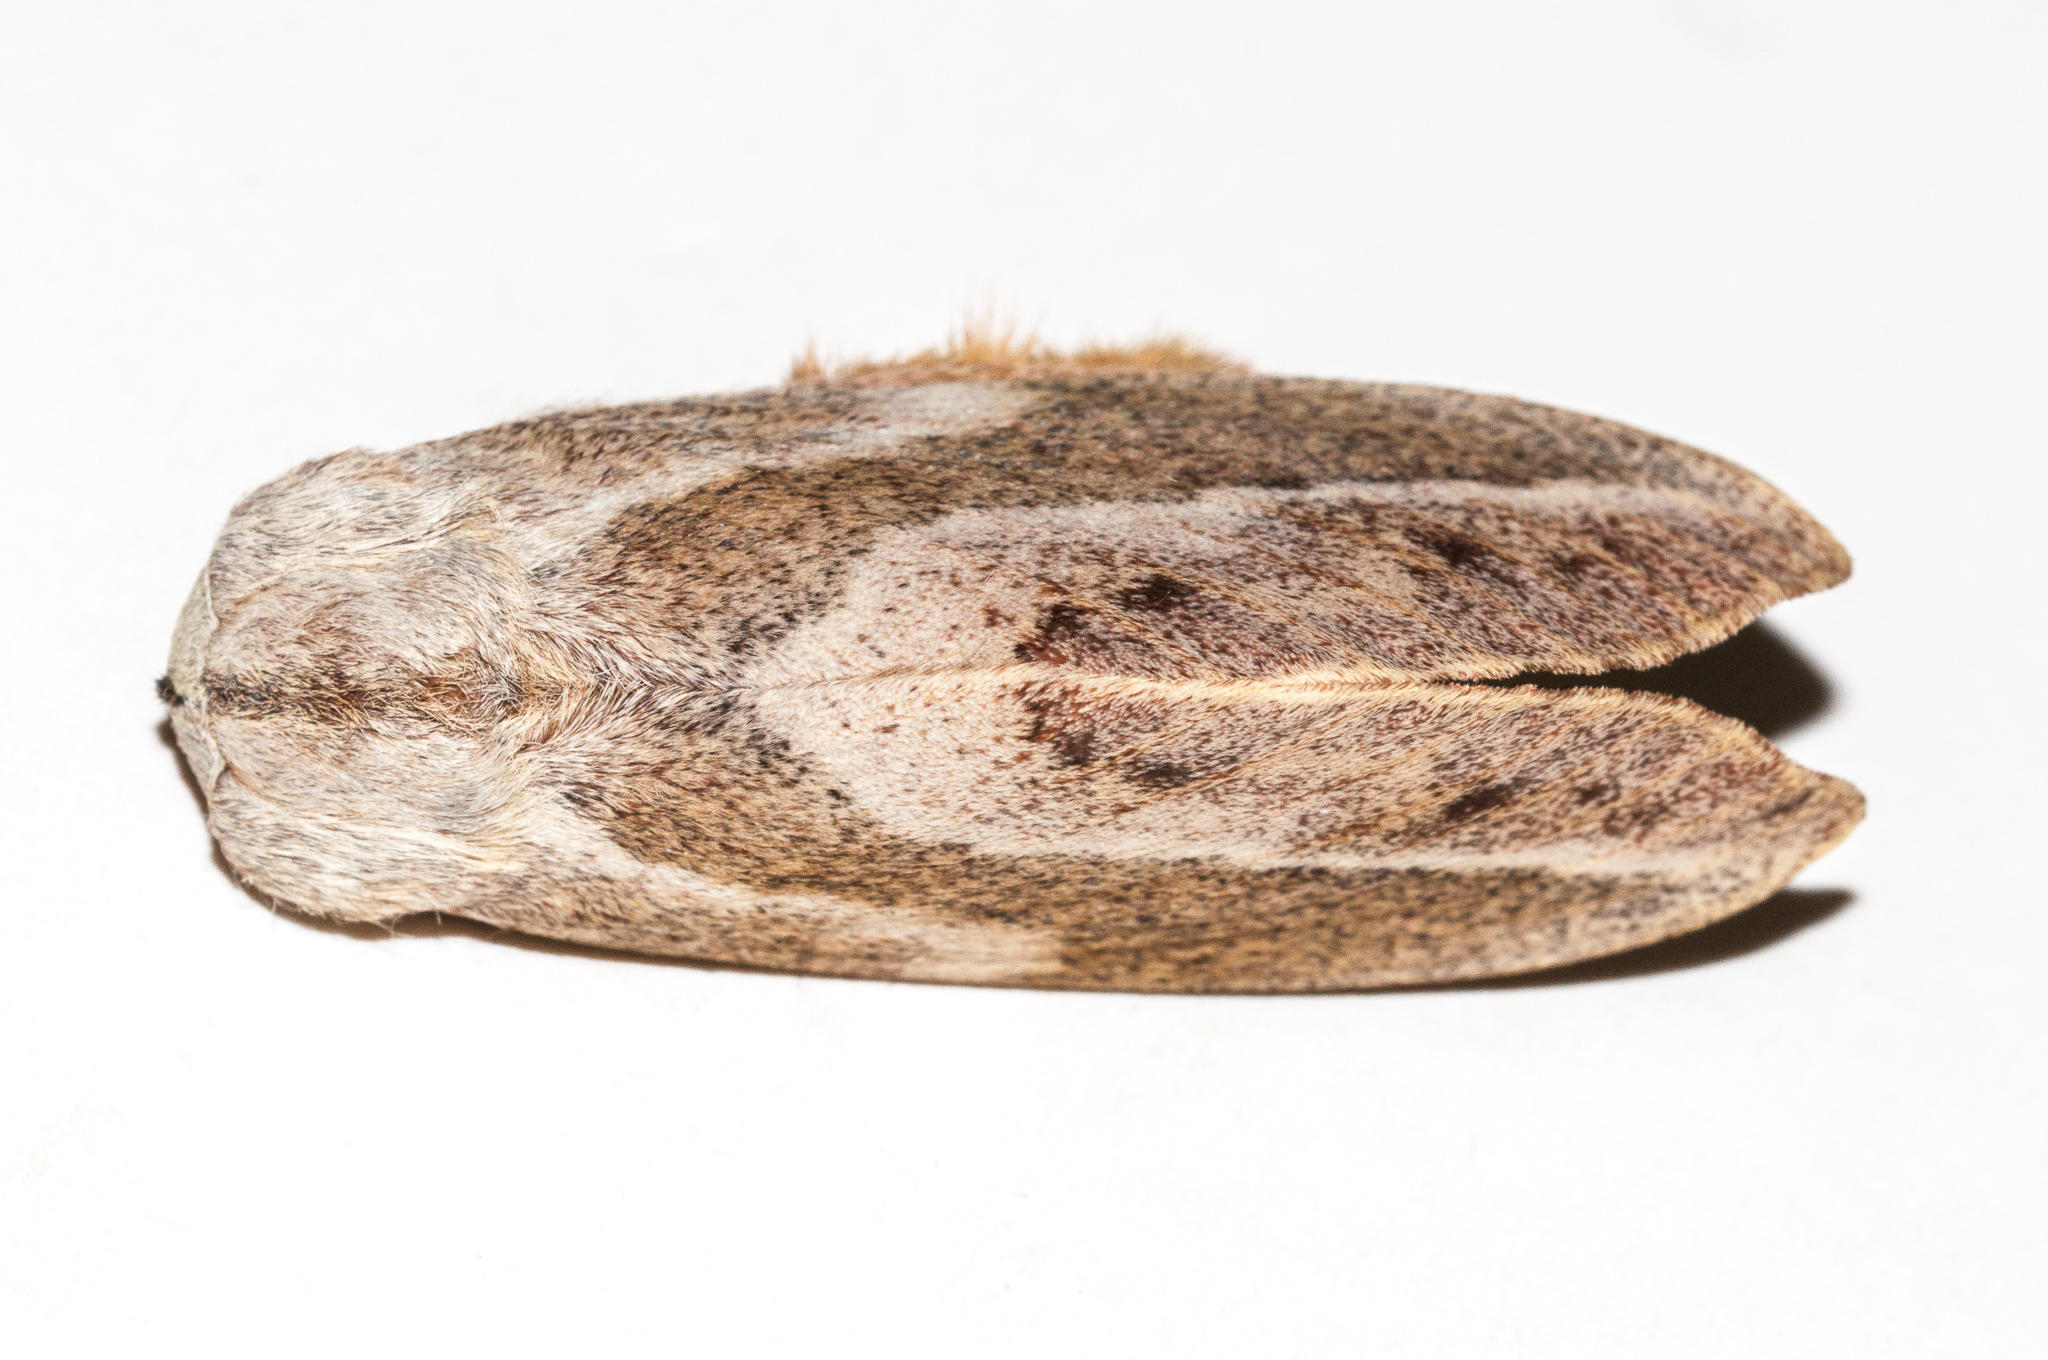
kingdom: Animalia
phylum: Arthropoda
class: Insecta
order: Lepidoptera
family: Lasiocampidae
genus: Eutricha
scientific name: Eutricha capensis
